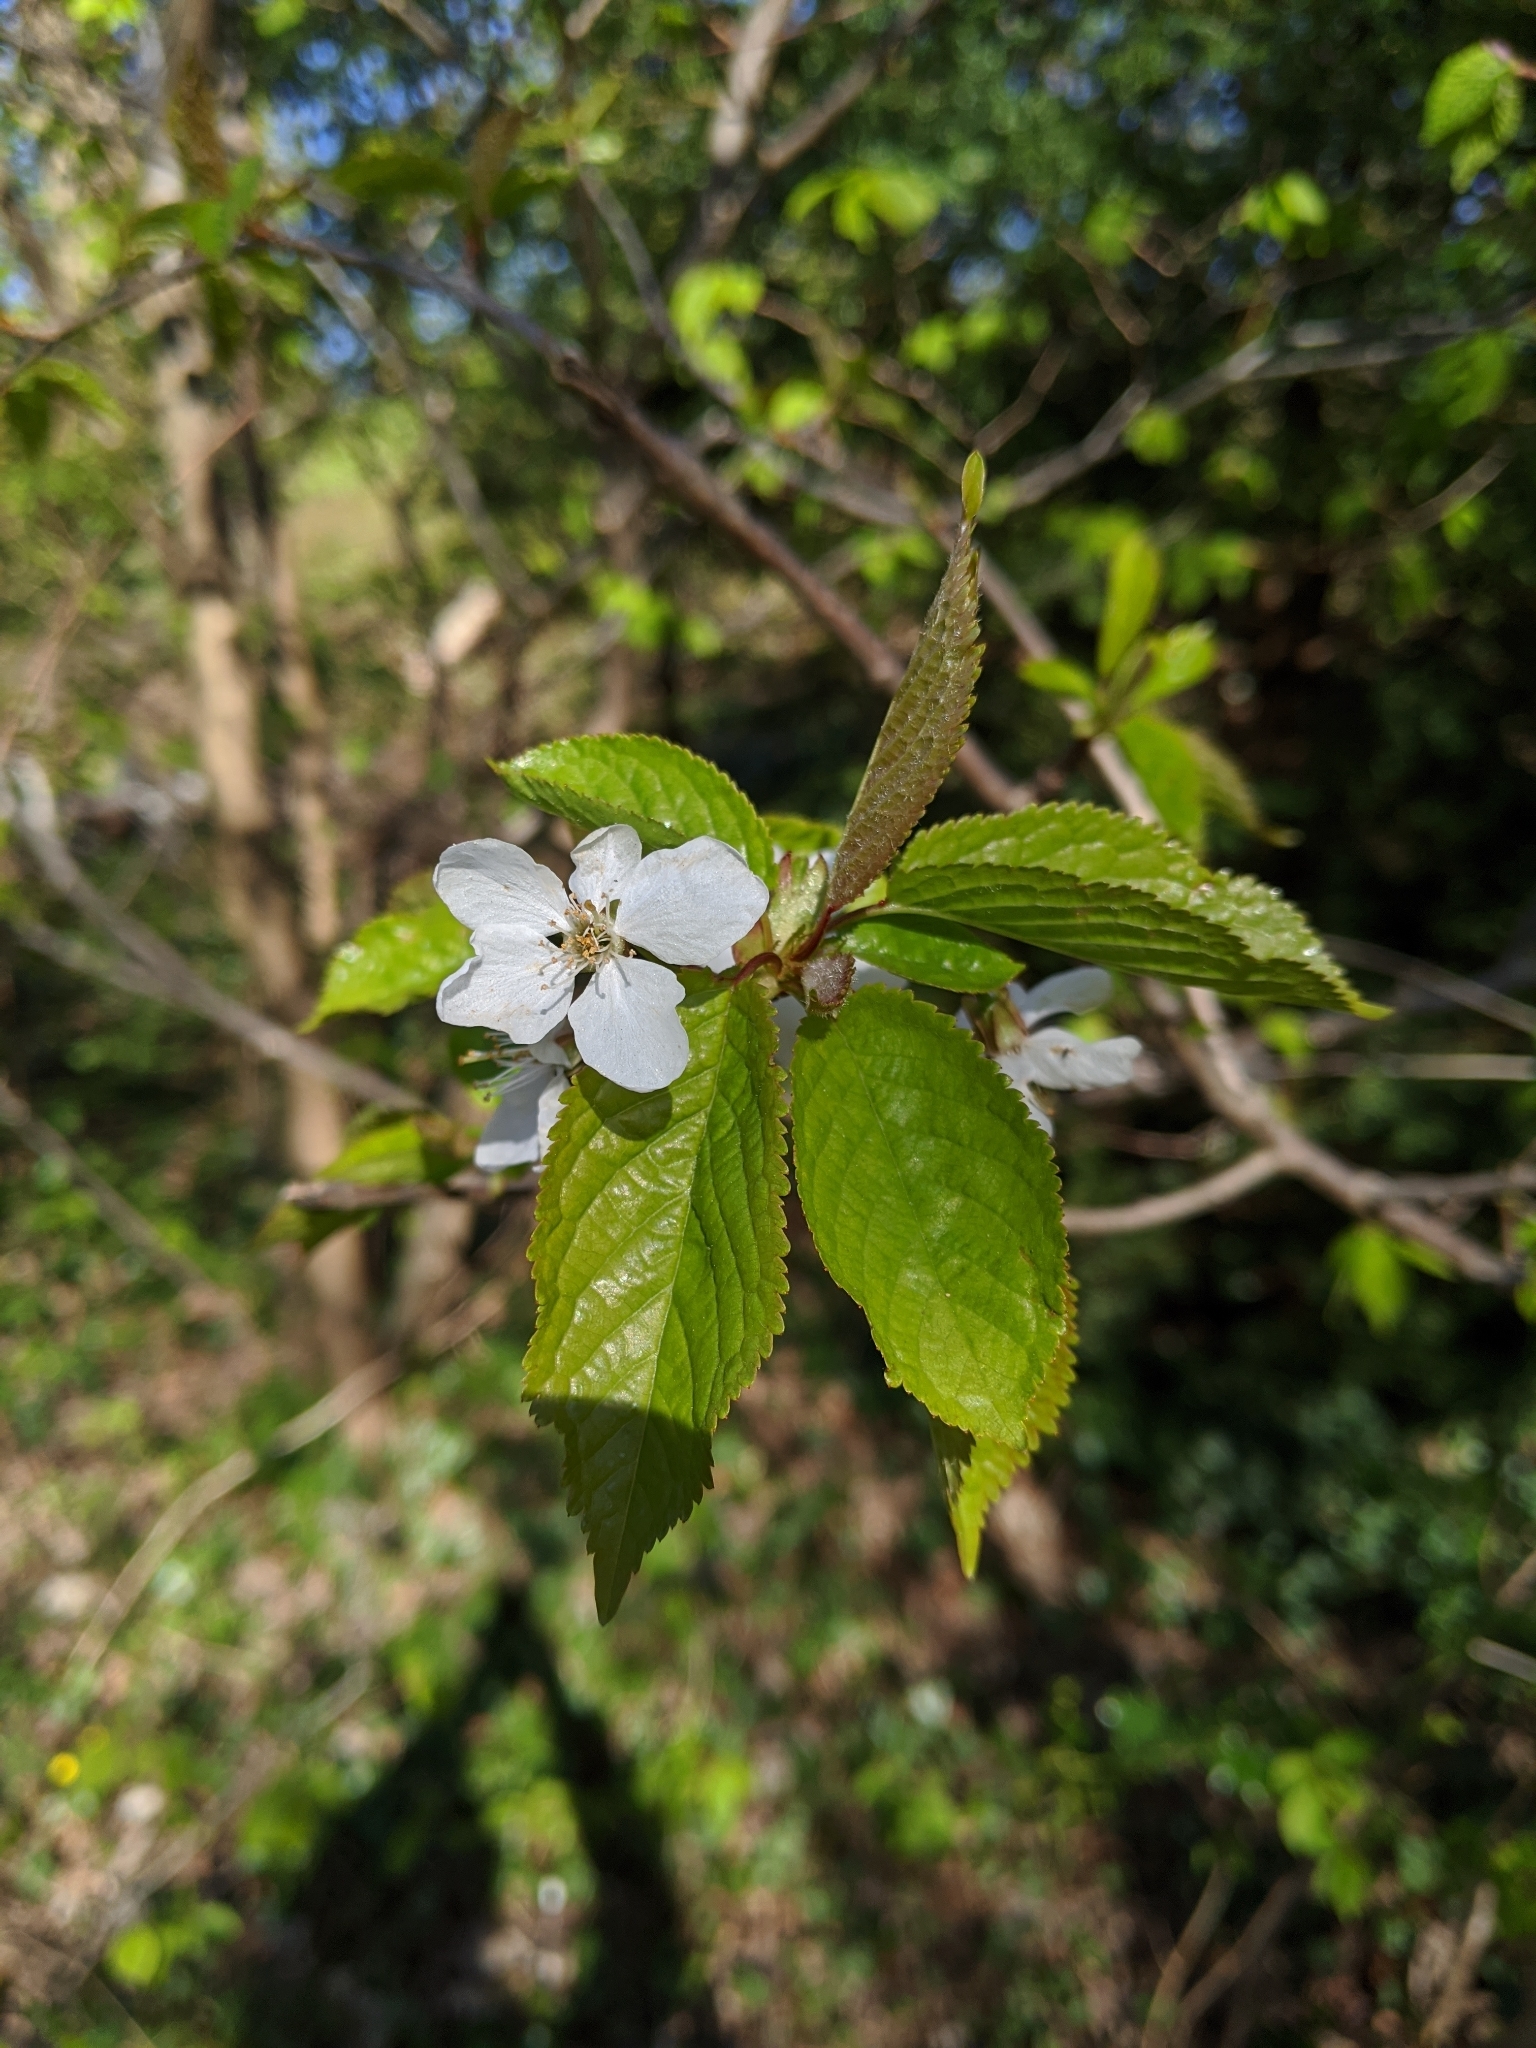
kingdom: Plantae
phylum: Tracheophyta
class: Magnoliopsida
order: Rosales
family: Rosaceae
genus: Prunus
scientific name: Prunus avium
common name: Sweet cherry
